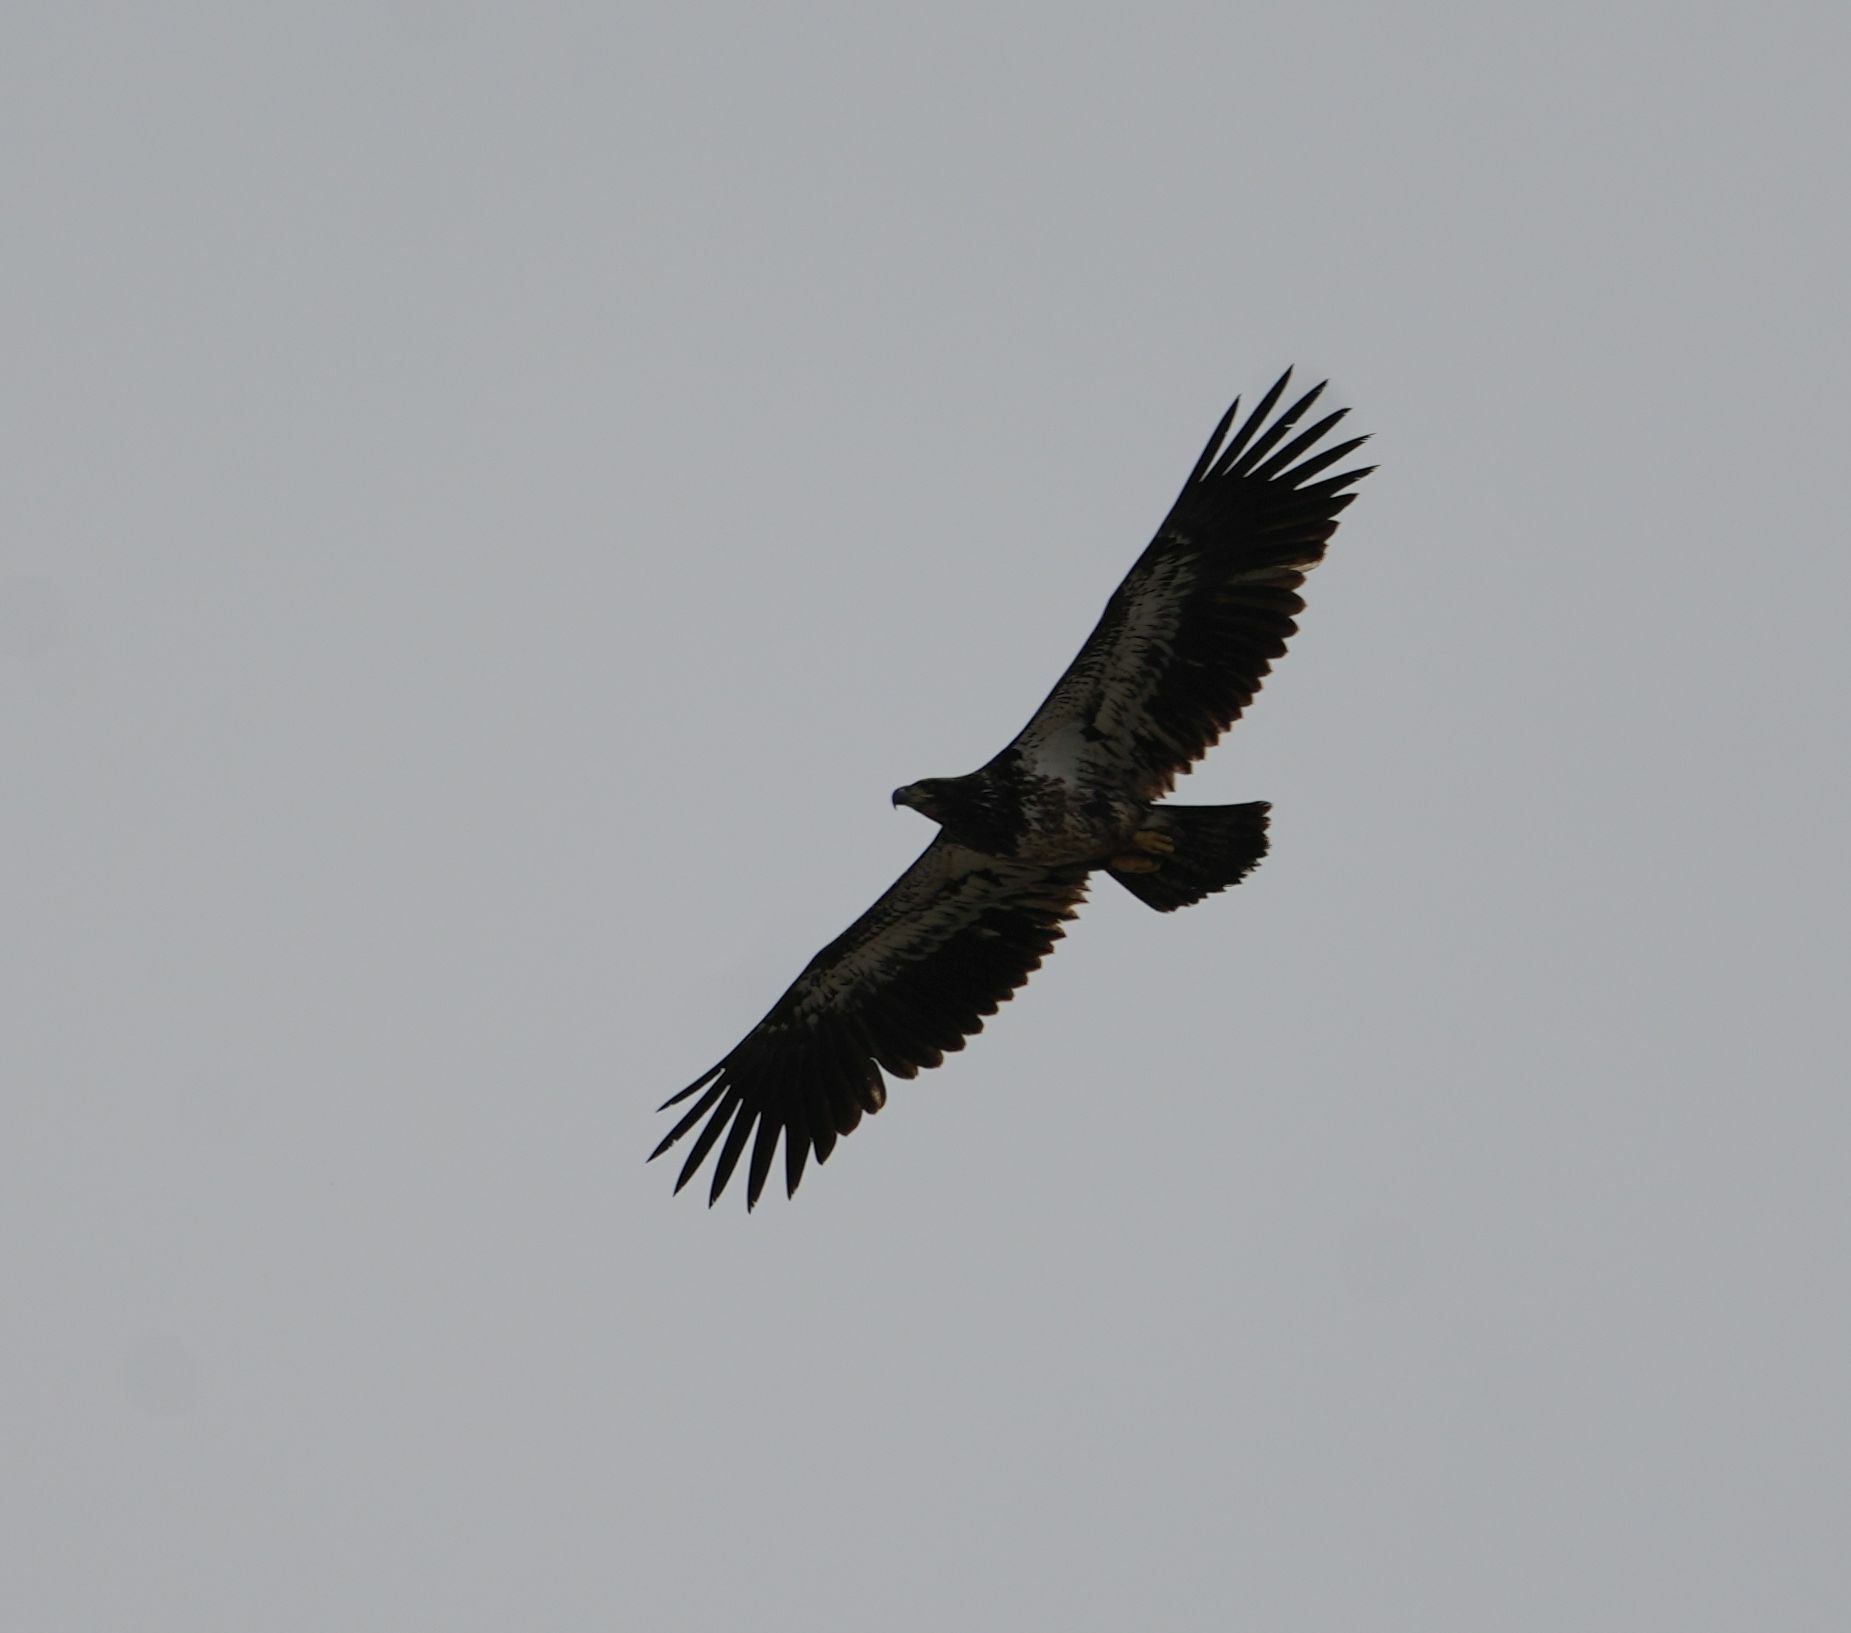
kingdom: Animalia
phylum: Chordata
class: Aves
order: Accipitriformes
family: Accipitridae
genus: Haliaeetus
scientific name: Haliaeetus leucocephalus
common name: Bald eagle
